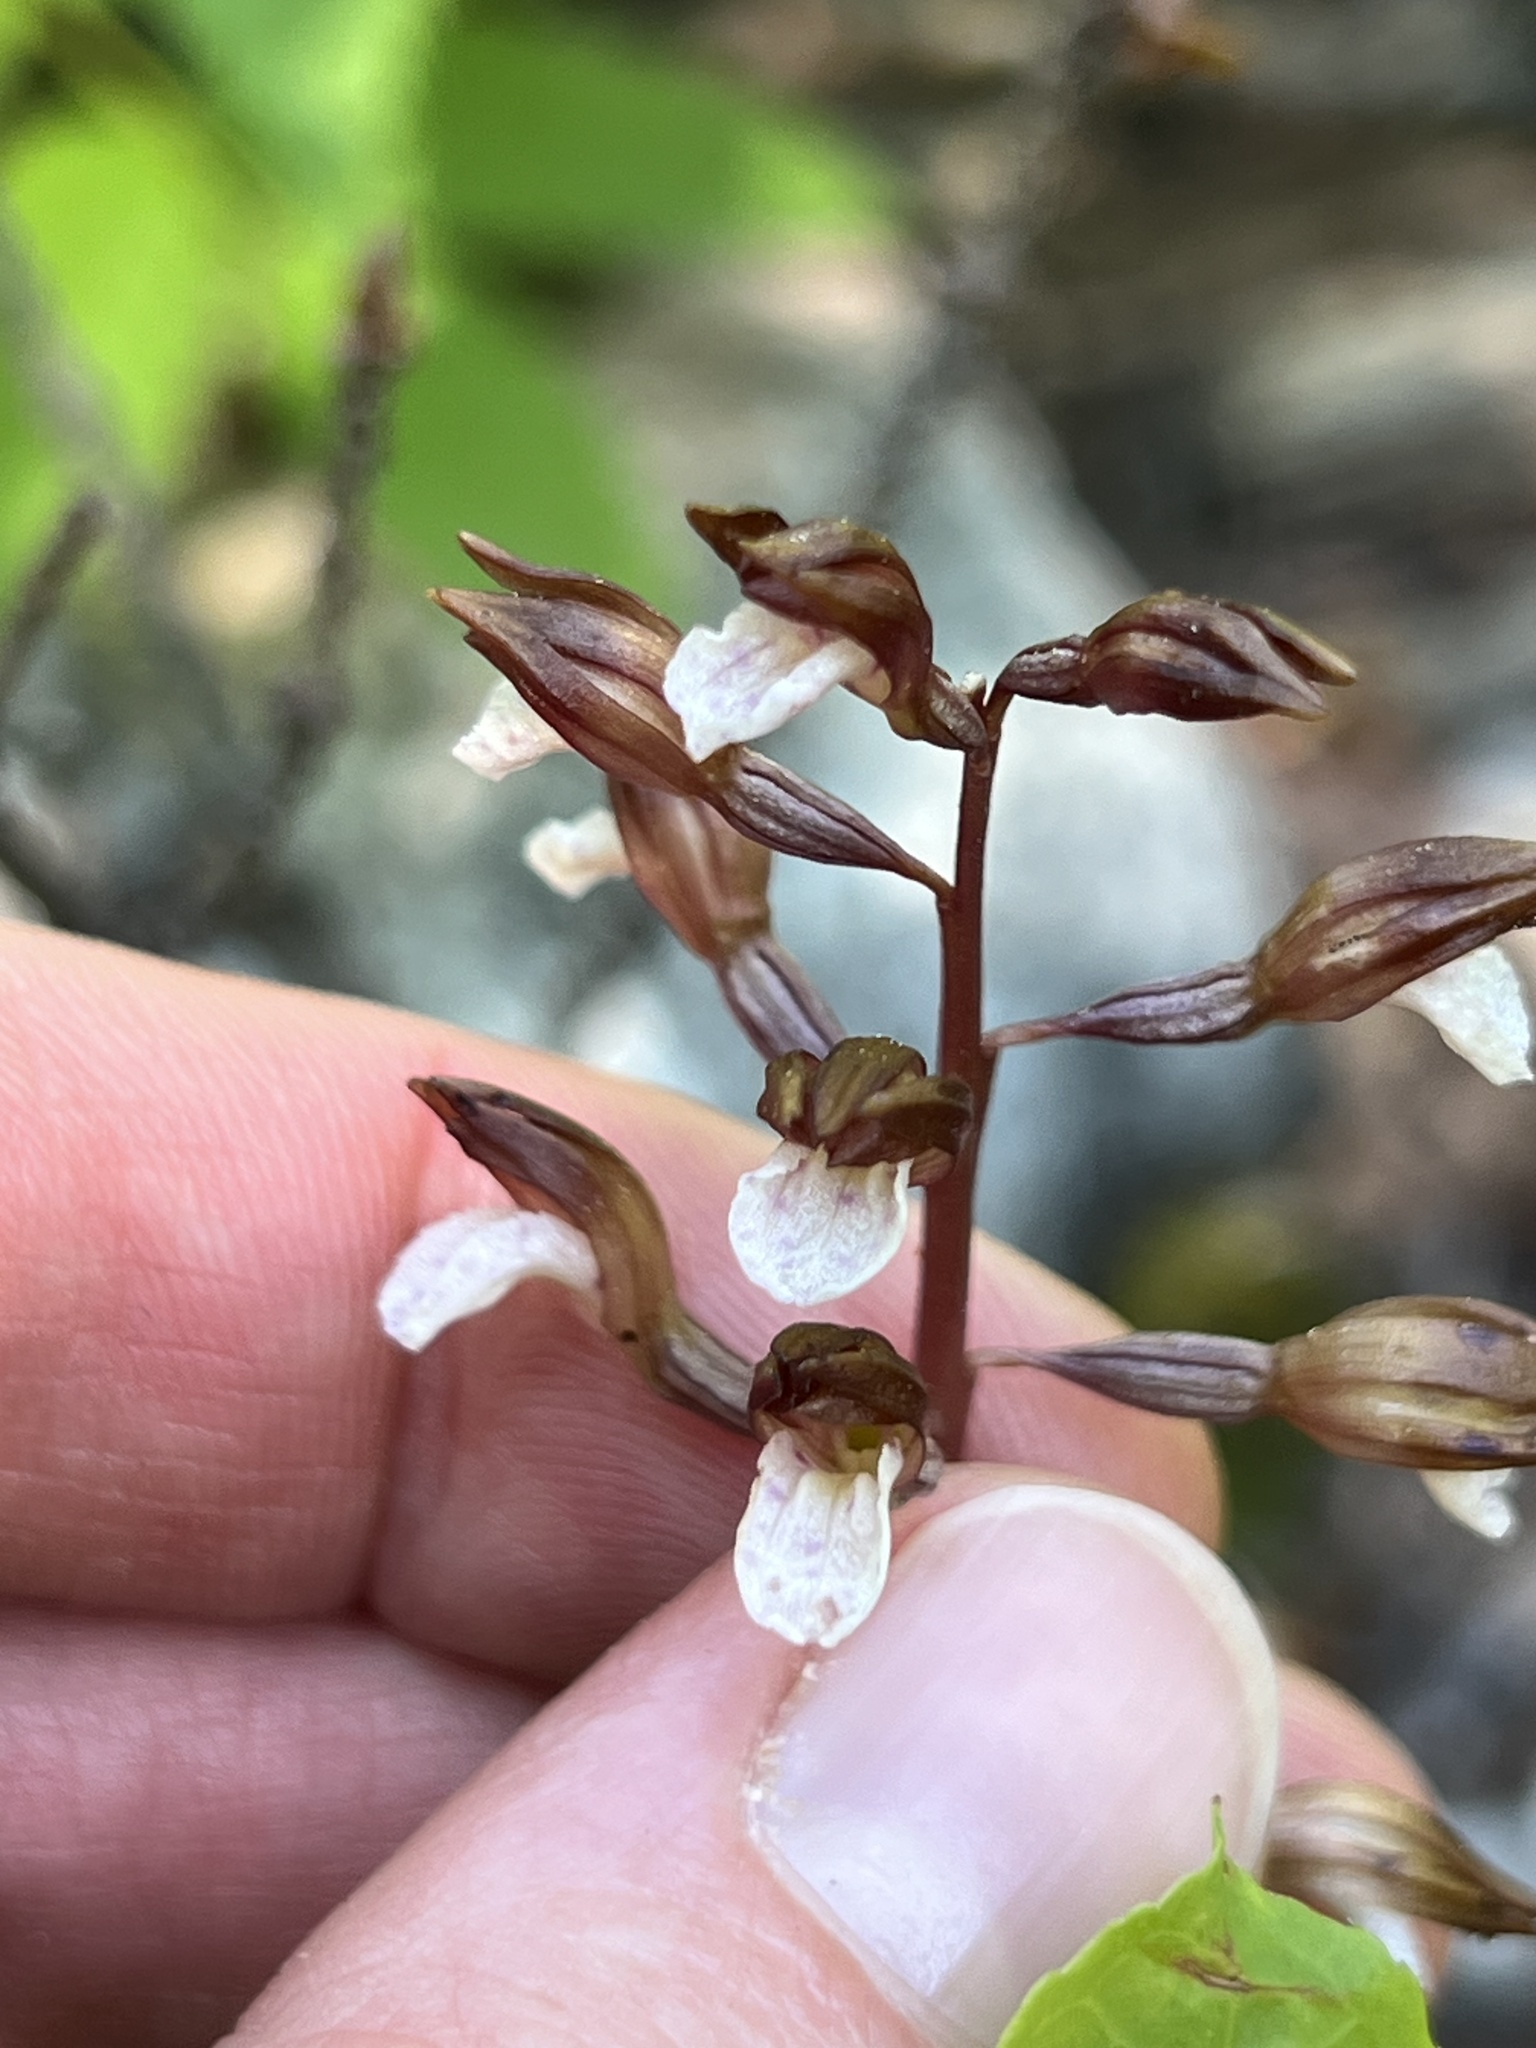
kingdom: Plantae
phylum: Tracheophyta
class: Liliopsida
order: Asparagales
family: Orchidaceae
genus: Corallorhiza
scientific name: Corallorhiza wisteriana
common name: Spring coralroot
